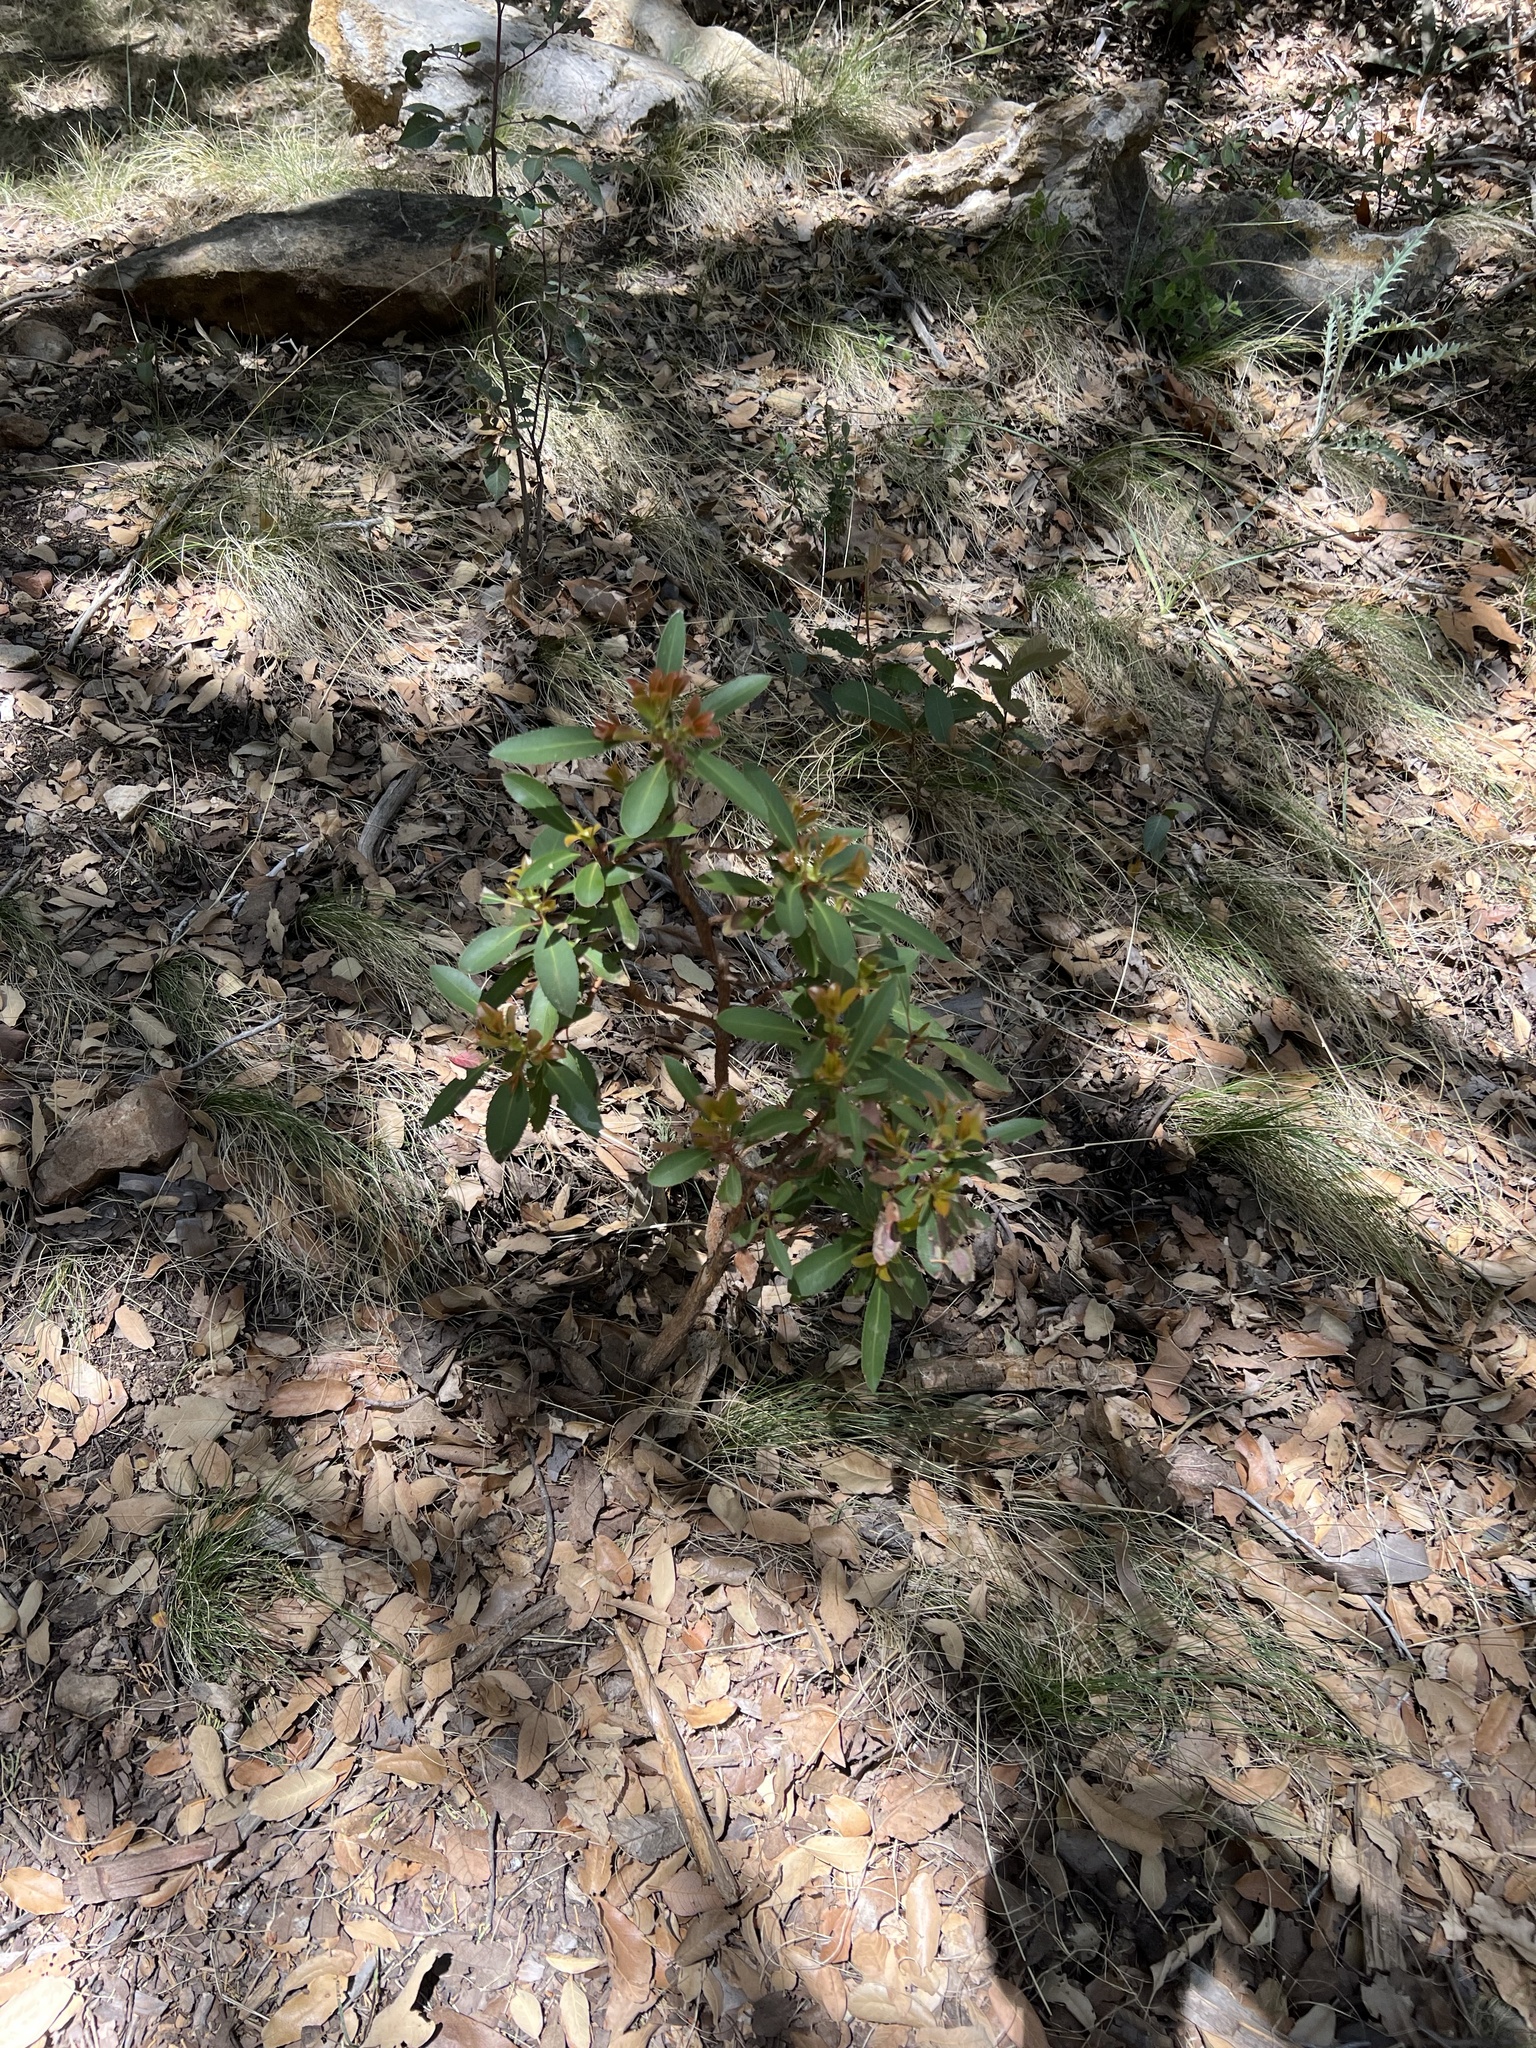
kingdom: Plantae
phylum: Tracheophyta
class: Magnoliopsida
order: Ericales
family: Ericaceae
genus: Arbutus
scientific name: Arbutus arizonica
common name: Arizona madrone
